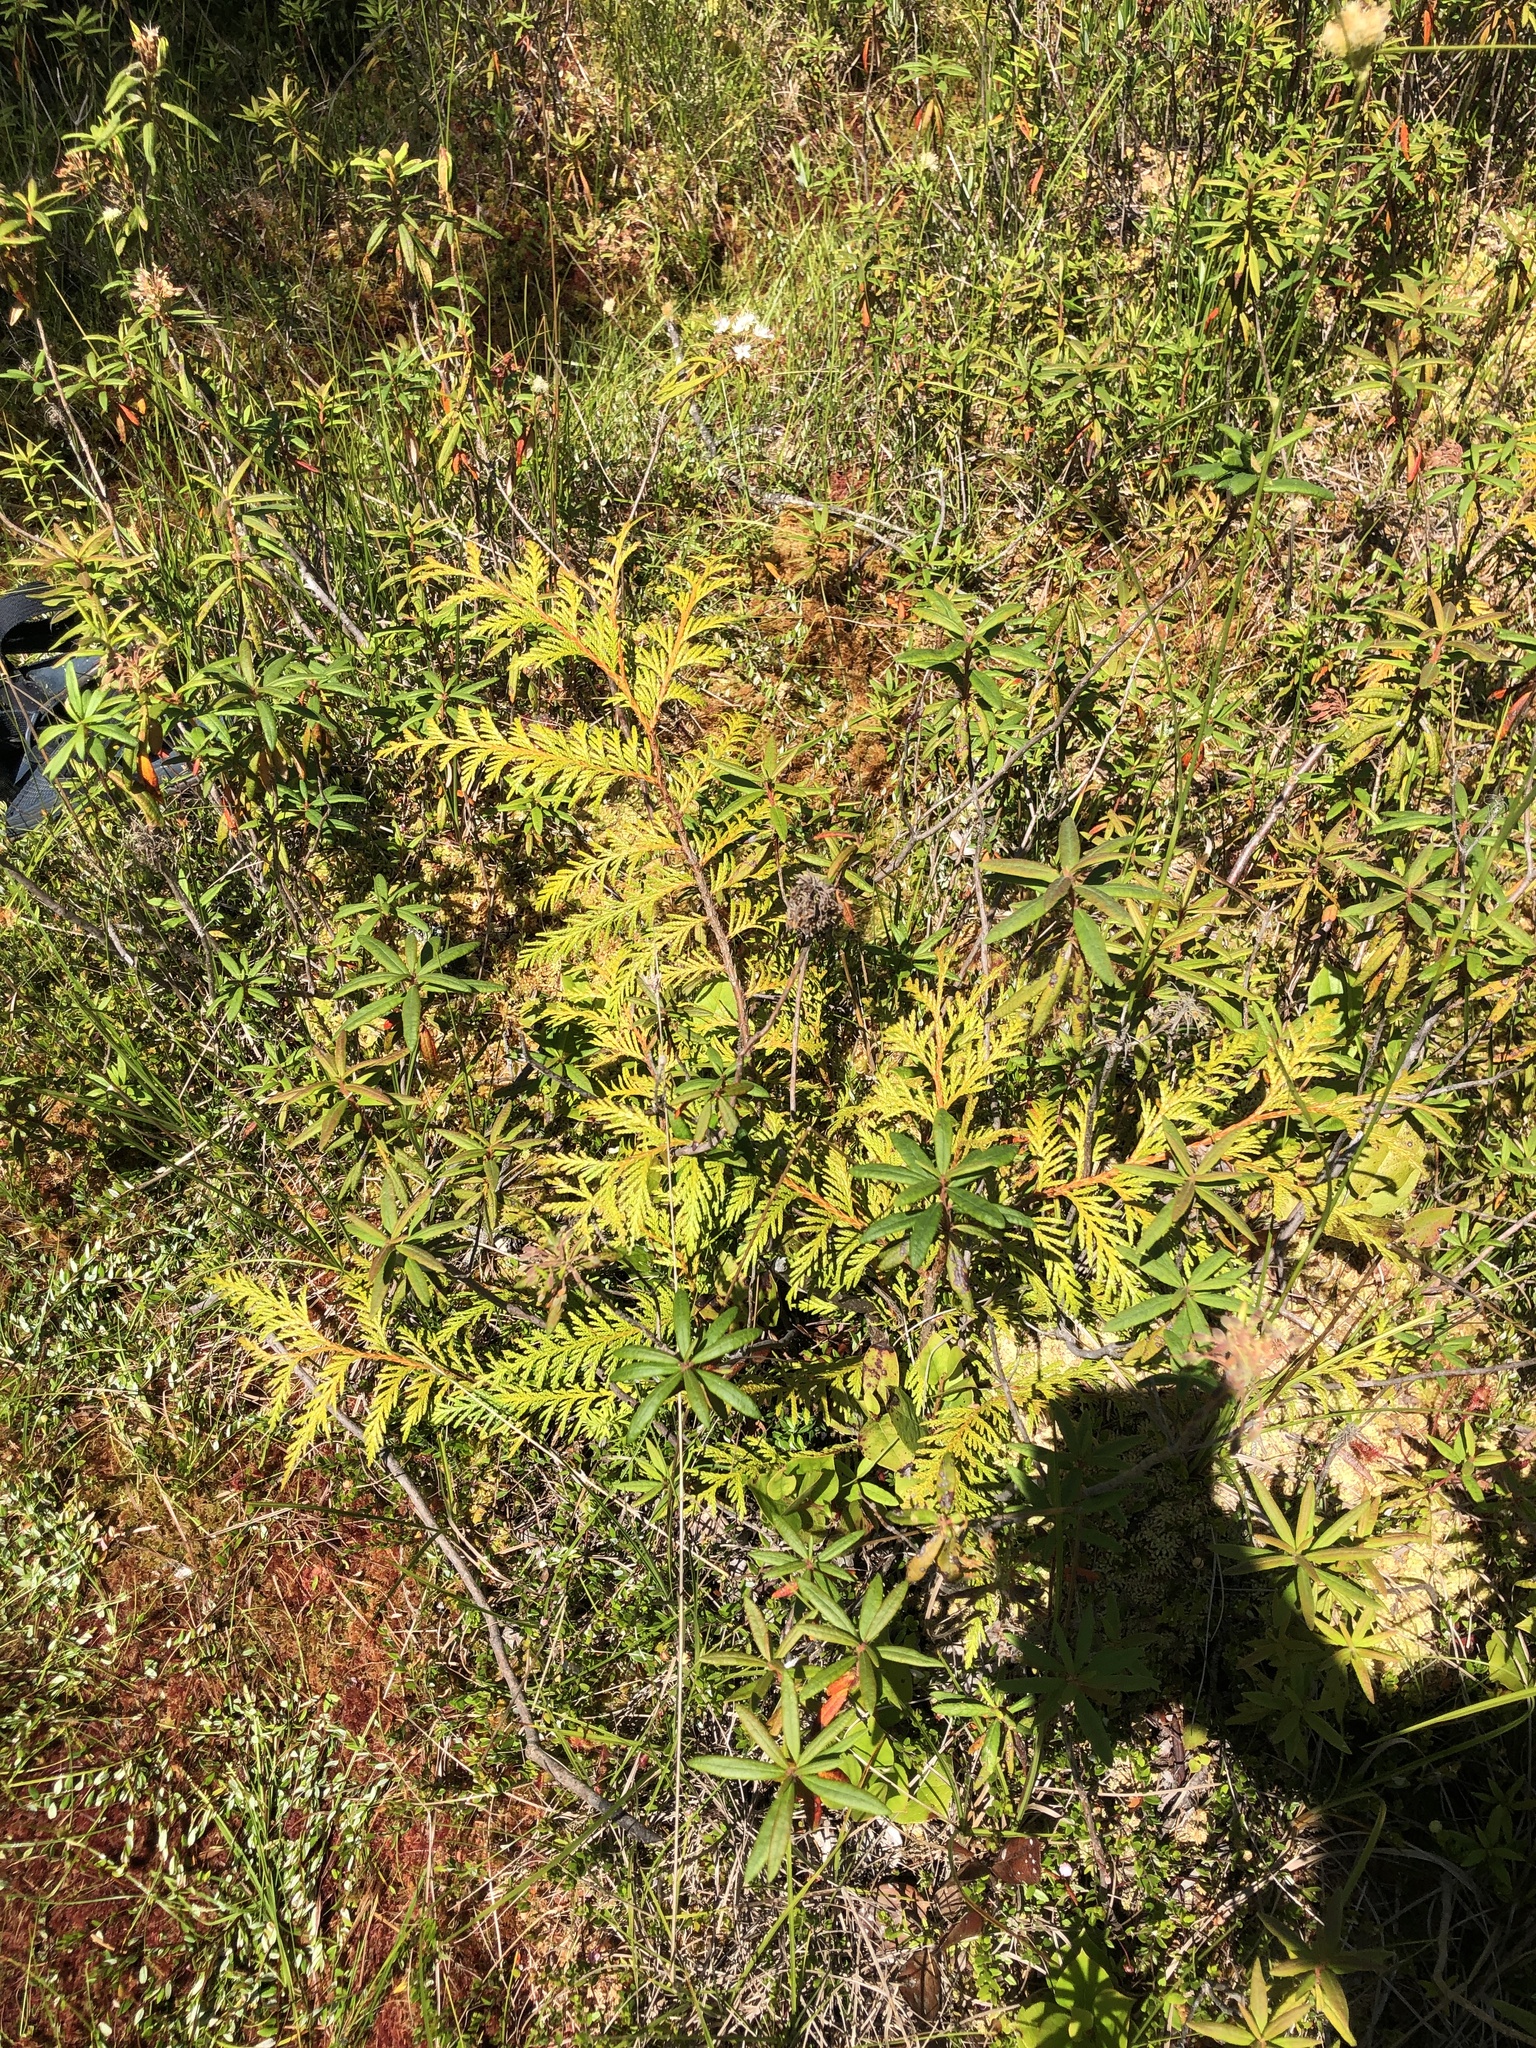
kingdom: Plantae
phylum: Tracheophyta
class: Pinopsida
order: Pinales
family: Cupressaceae
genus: Thuja
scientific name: Thuja plicata
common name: Western red-cedar
